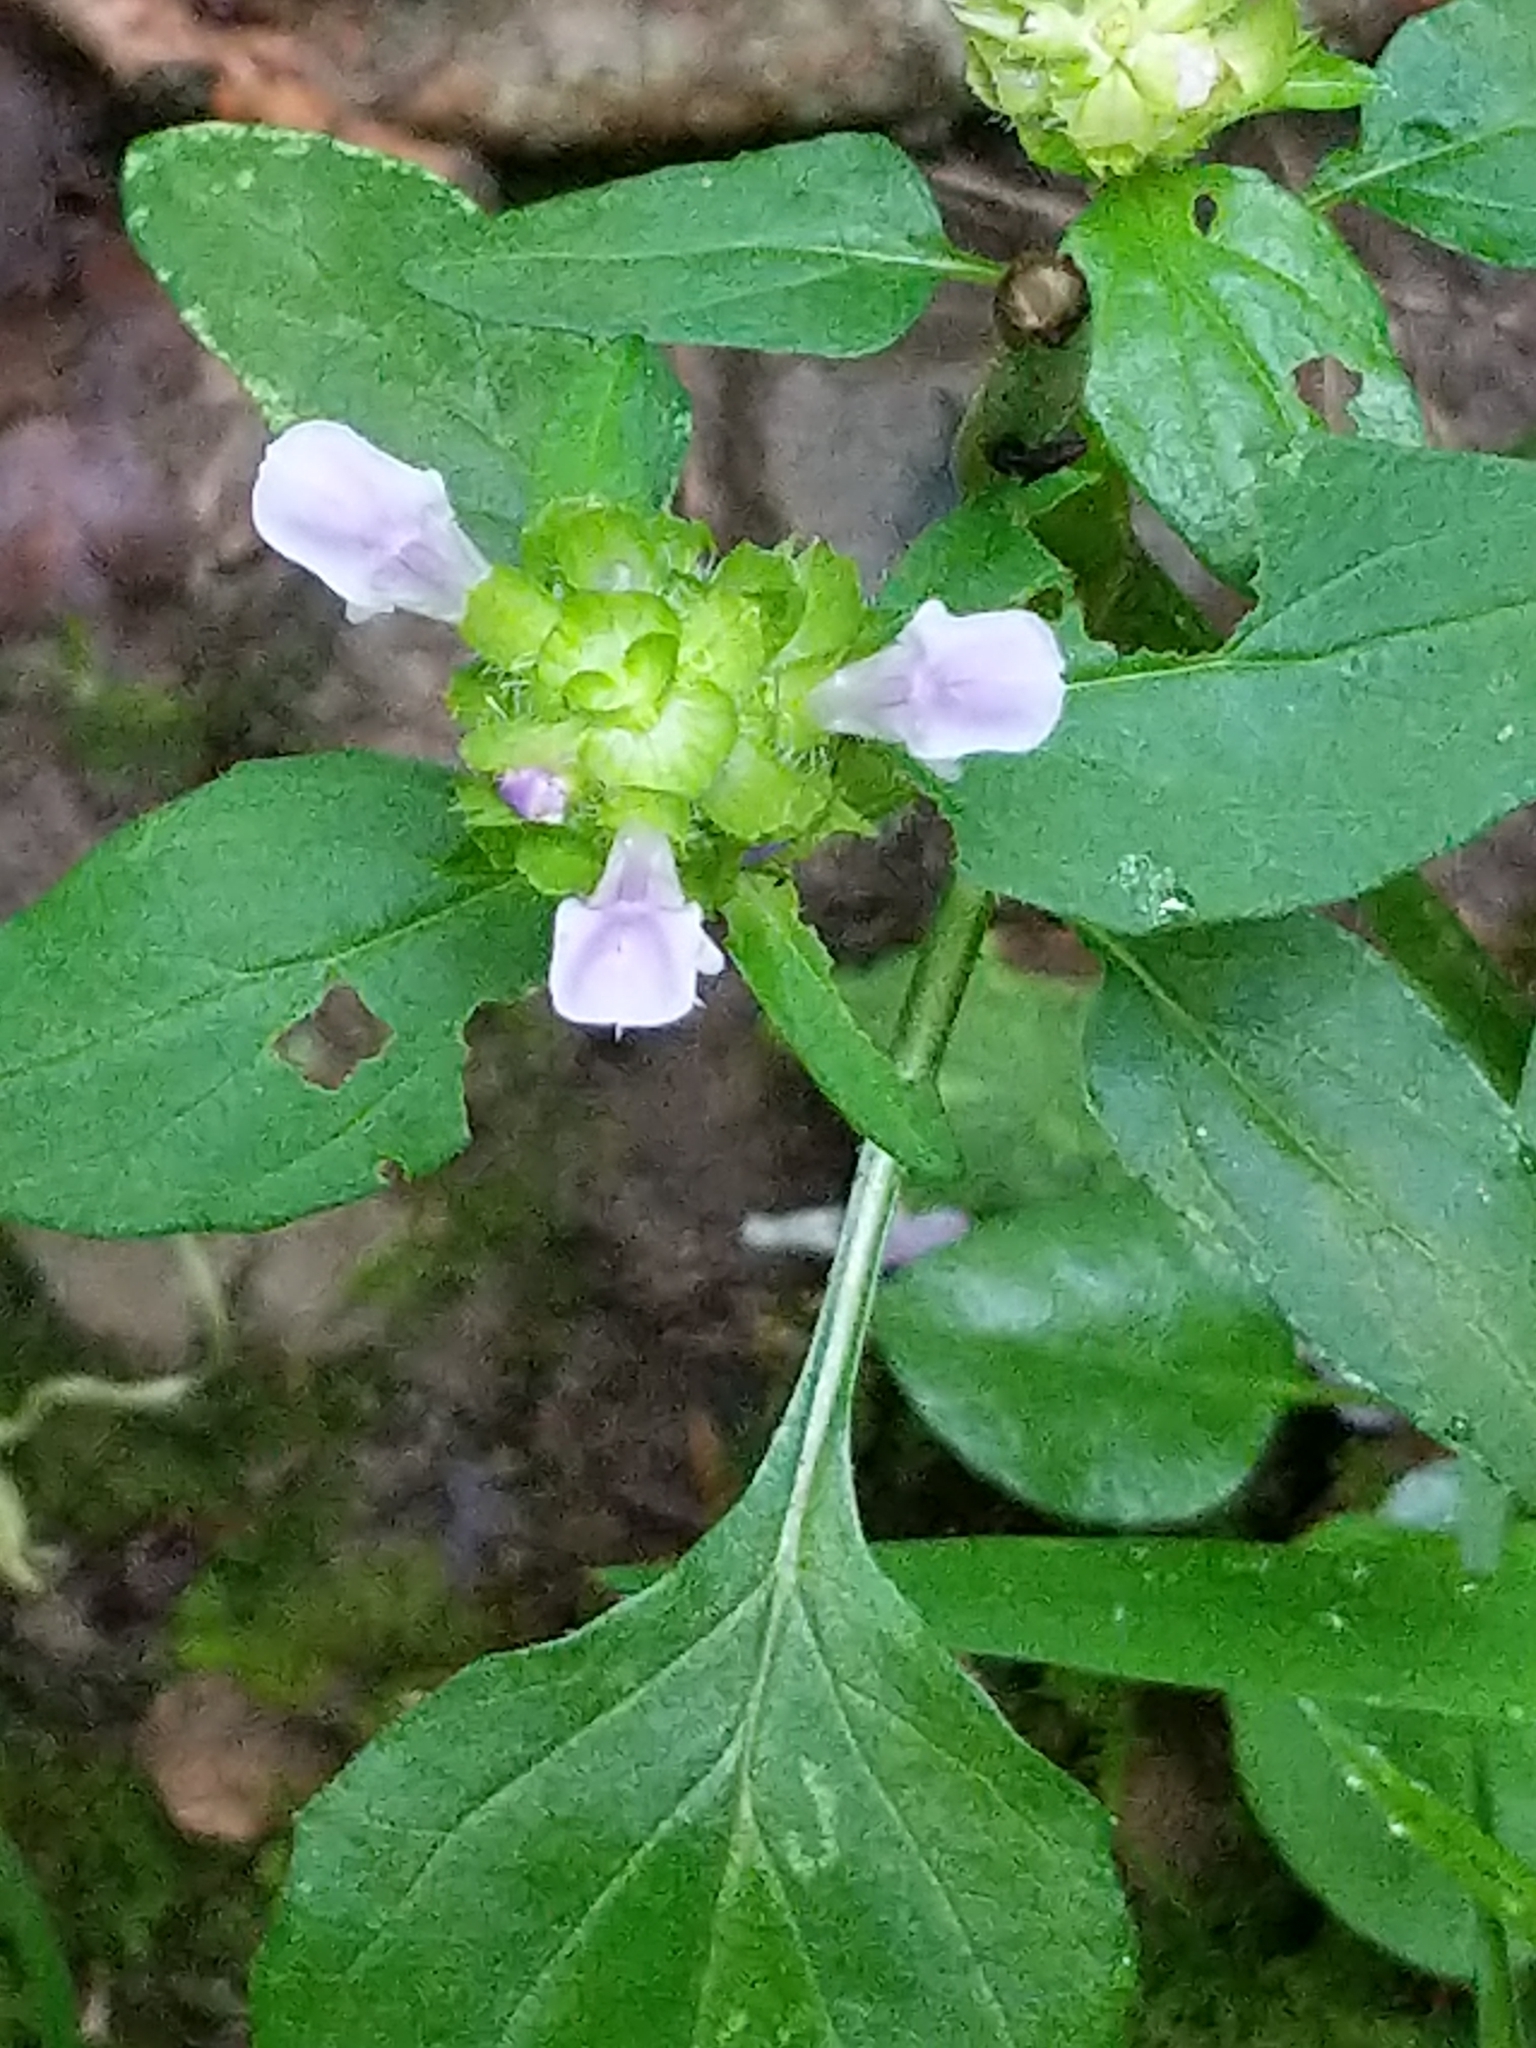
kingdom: Plantae
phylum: Tracheophyta
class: Magnoliopsida
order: Lamiales
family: Lamiaceae
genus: Prunella
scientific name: Prunella vulgaris
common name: Heal-all
